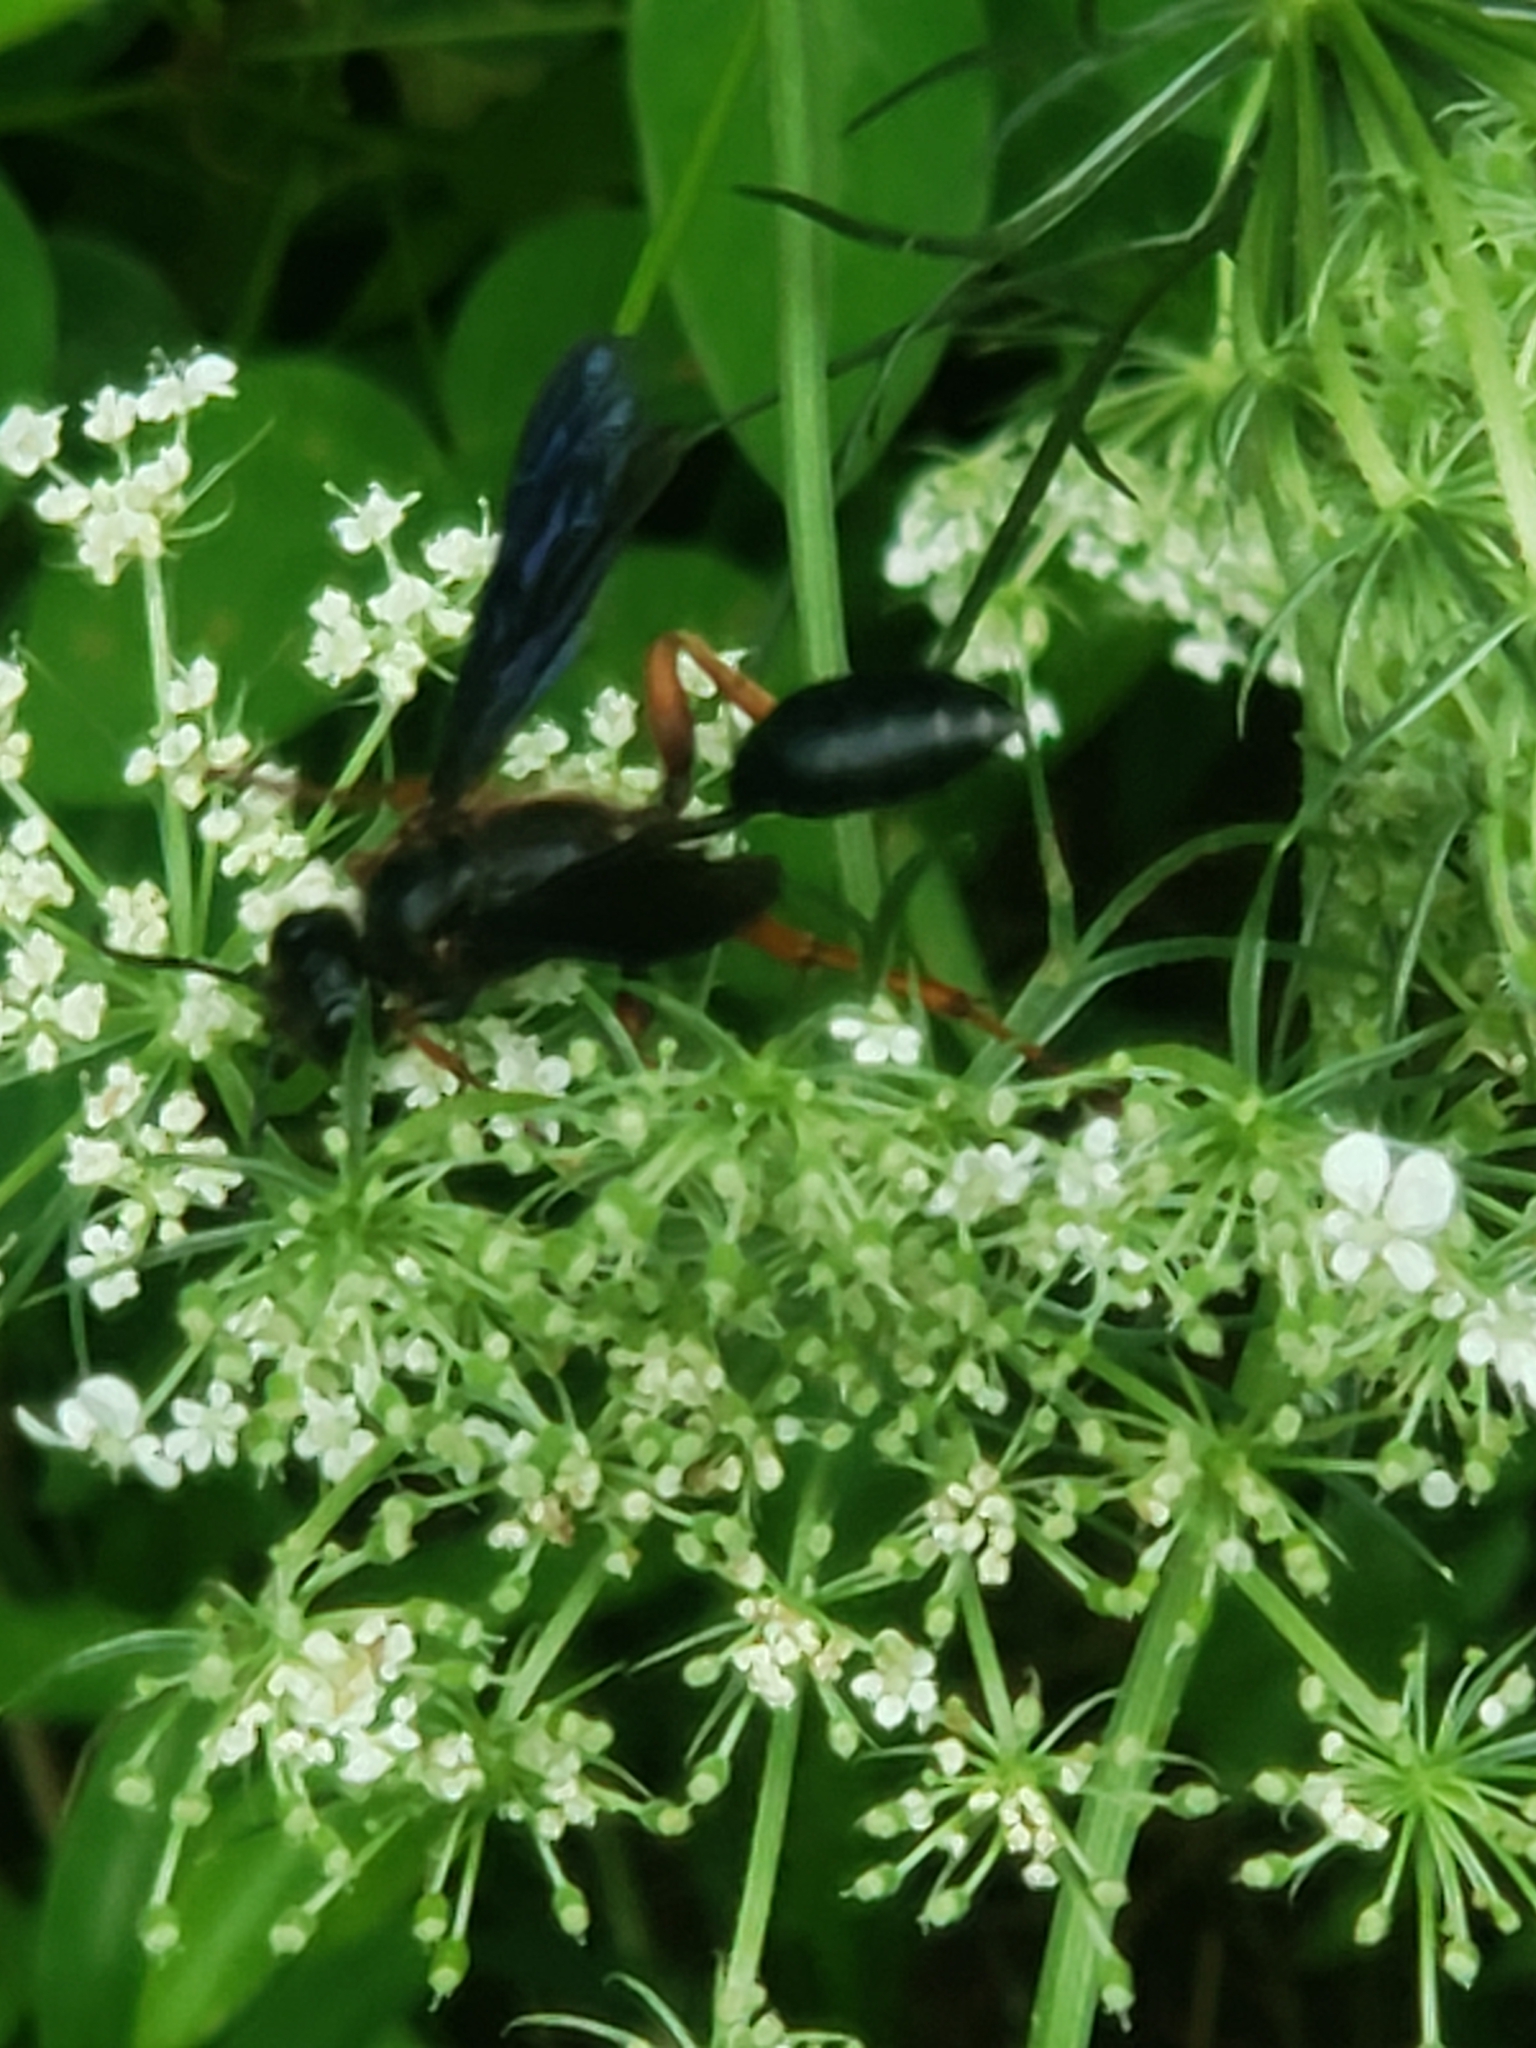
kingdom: Animalia
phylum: Arthropoda
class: Insecta
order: Hymenoptera
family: Sphecidae
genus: Isodontia
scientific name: Isodontia auripes
